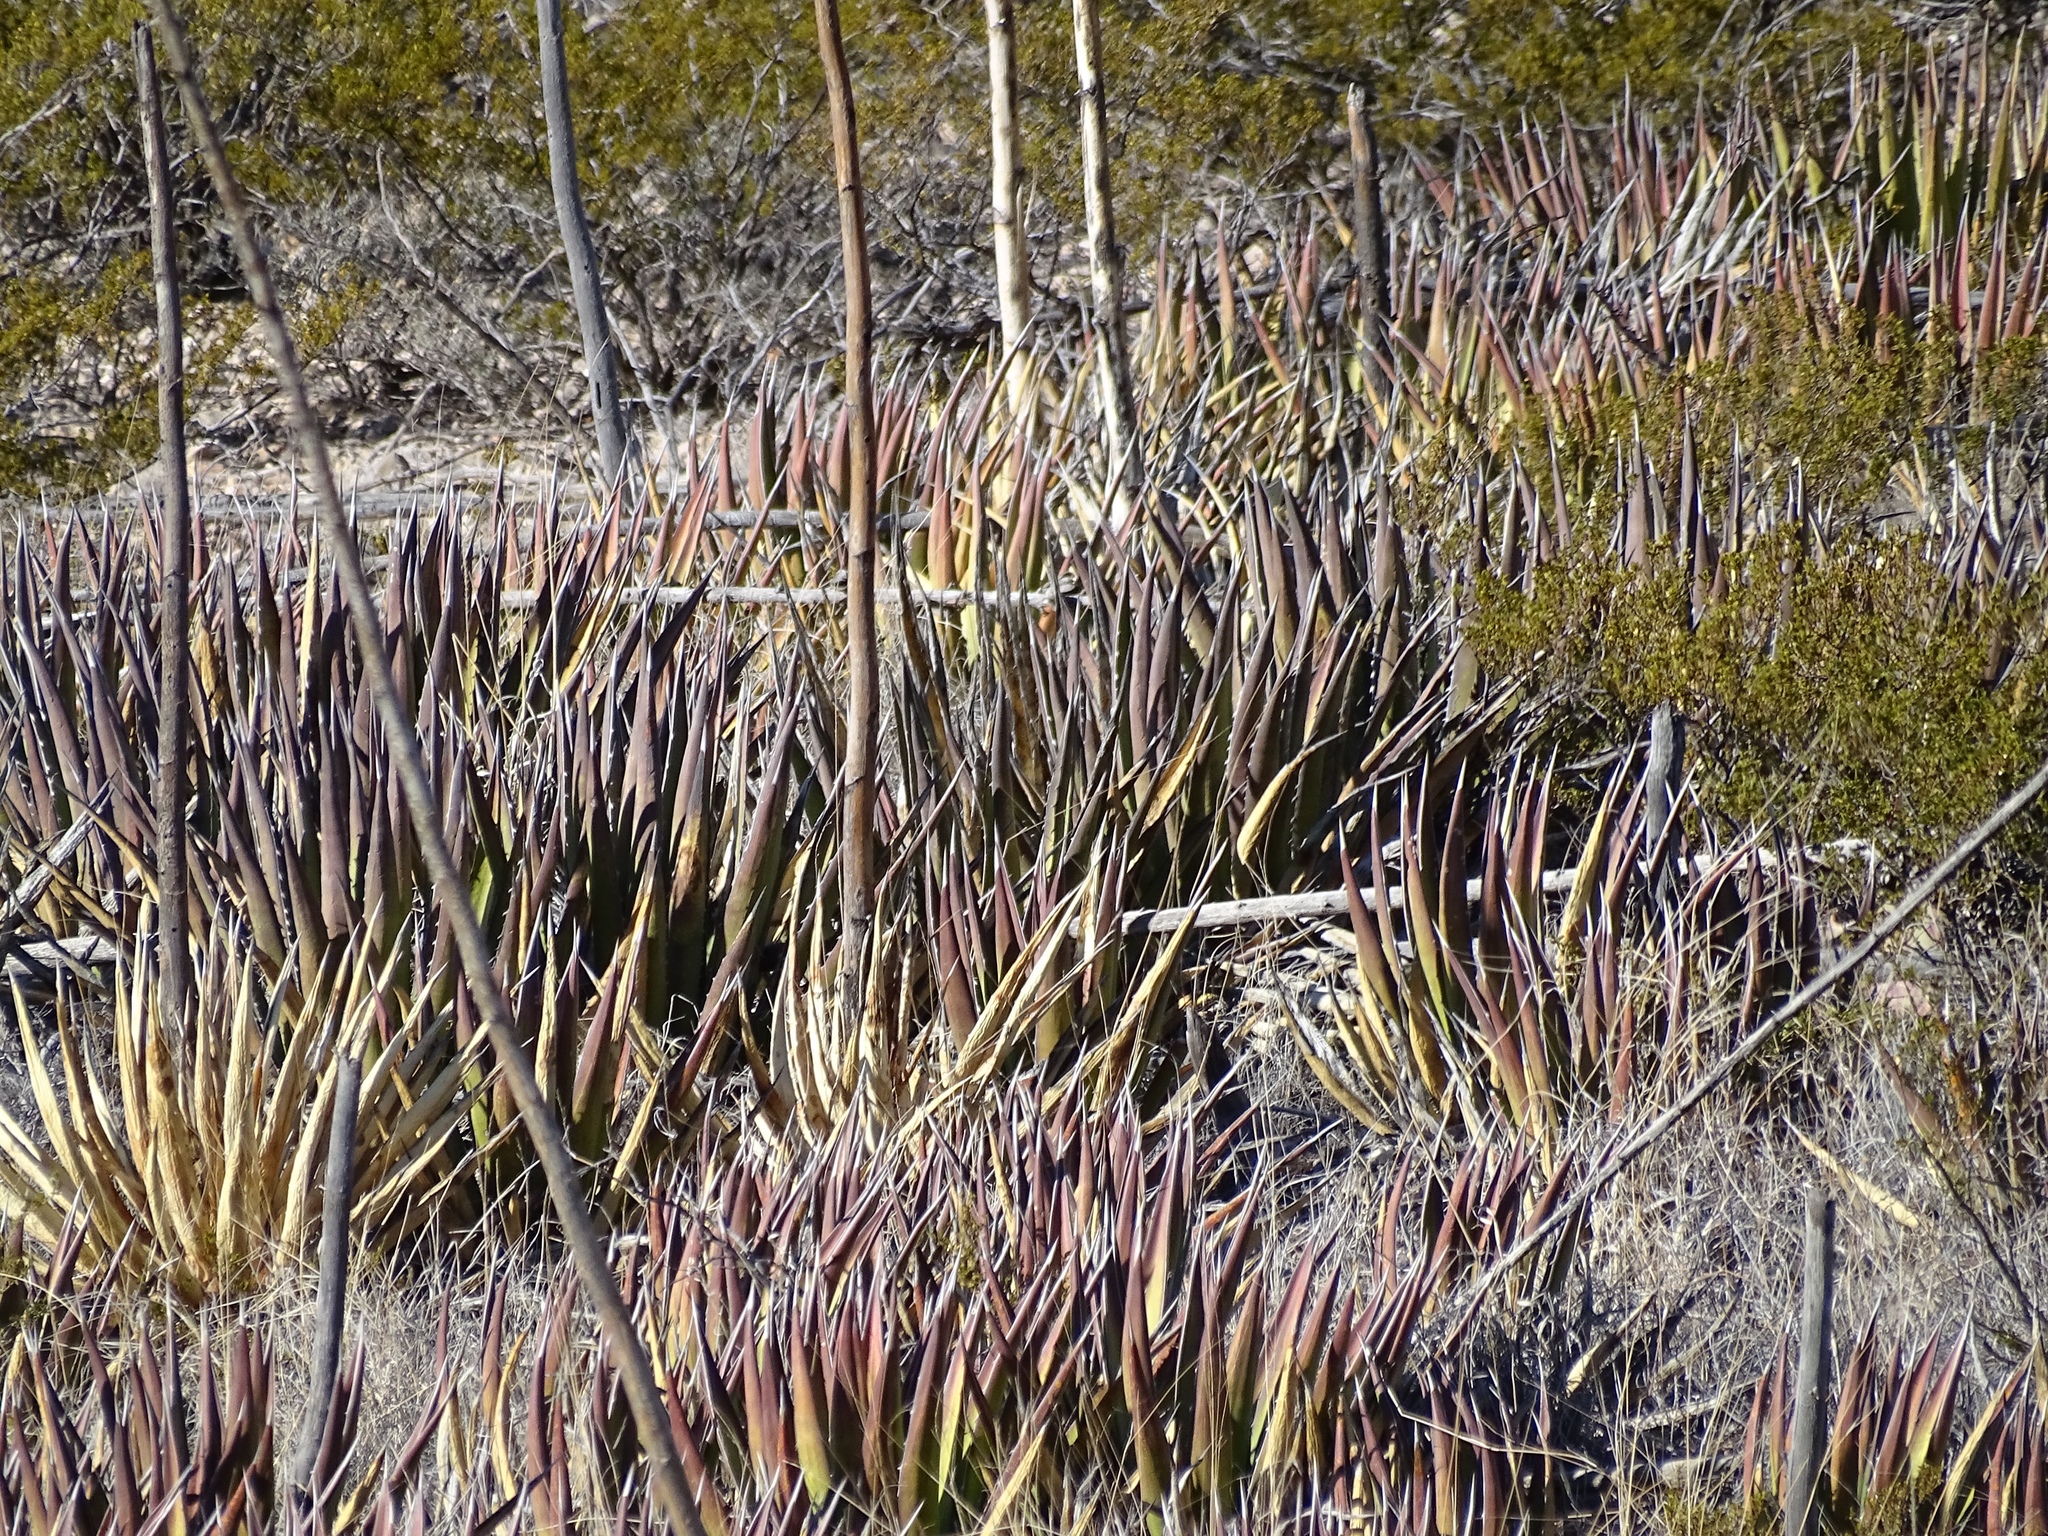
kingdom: Plantae
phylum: Tracheophyta
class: Liliopsida
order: Asparagales
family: Asparagaceae
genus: Agave
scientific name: Agave lechuguilla
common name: Lecheguilla agave
